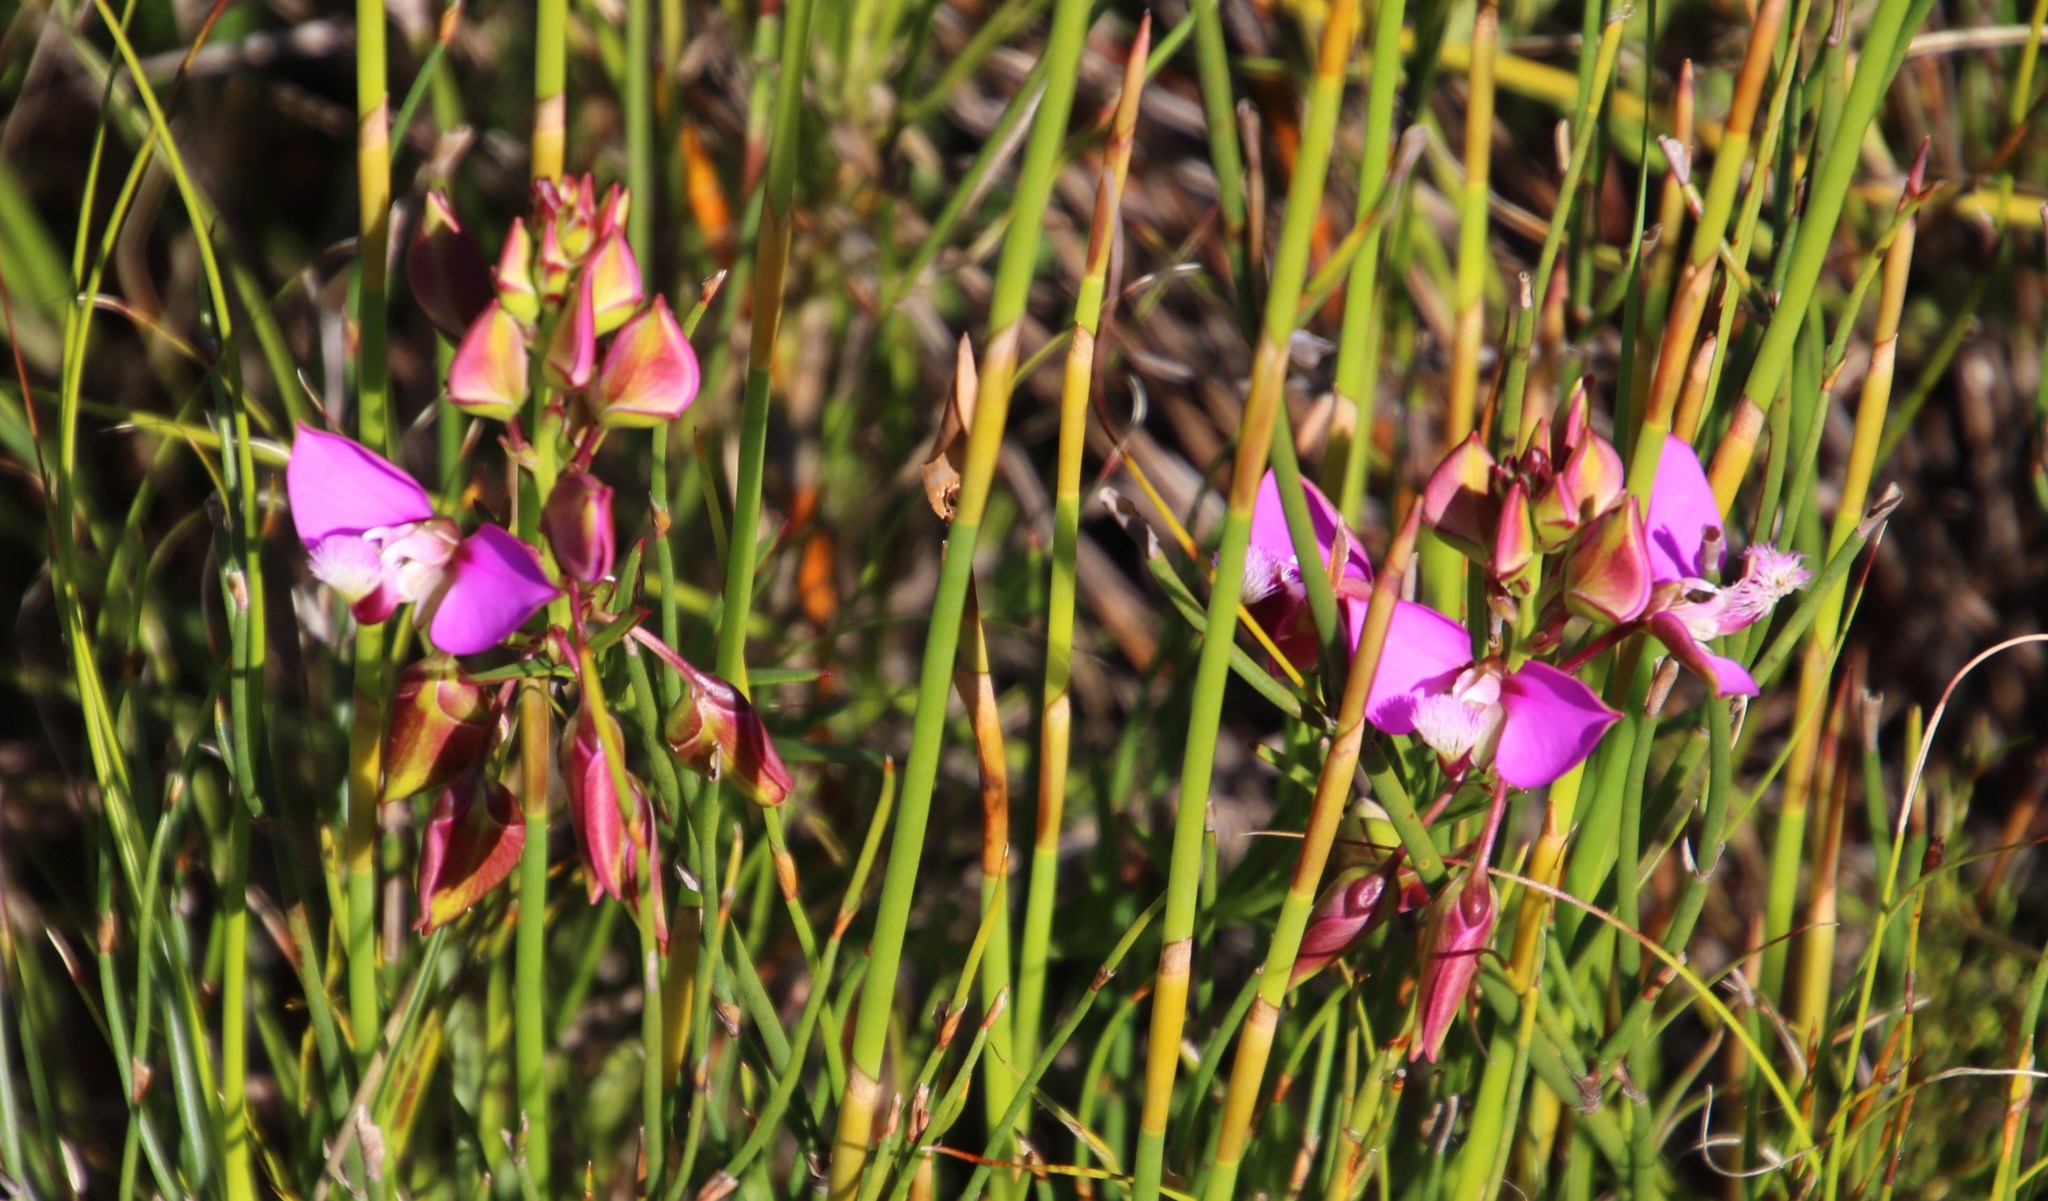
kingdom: Plantae
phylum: Tracheophyta
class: Magnoliopsida
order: Fabales
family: Polygalaceae
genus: Polygala
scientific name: Polygala bracteolata
